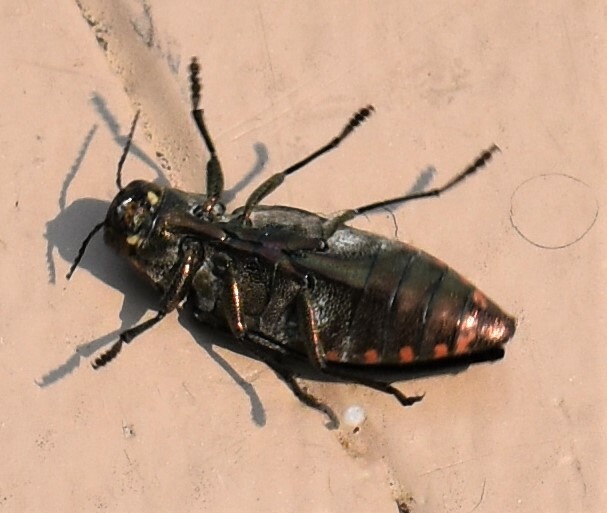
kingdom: Animalia
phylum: Arthropoda
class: Insecta
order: Coleoptera
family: Buprestidae
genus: Buprestis
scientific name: Buprestis maculativentris
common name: Spotted-belly buprestid beetle
